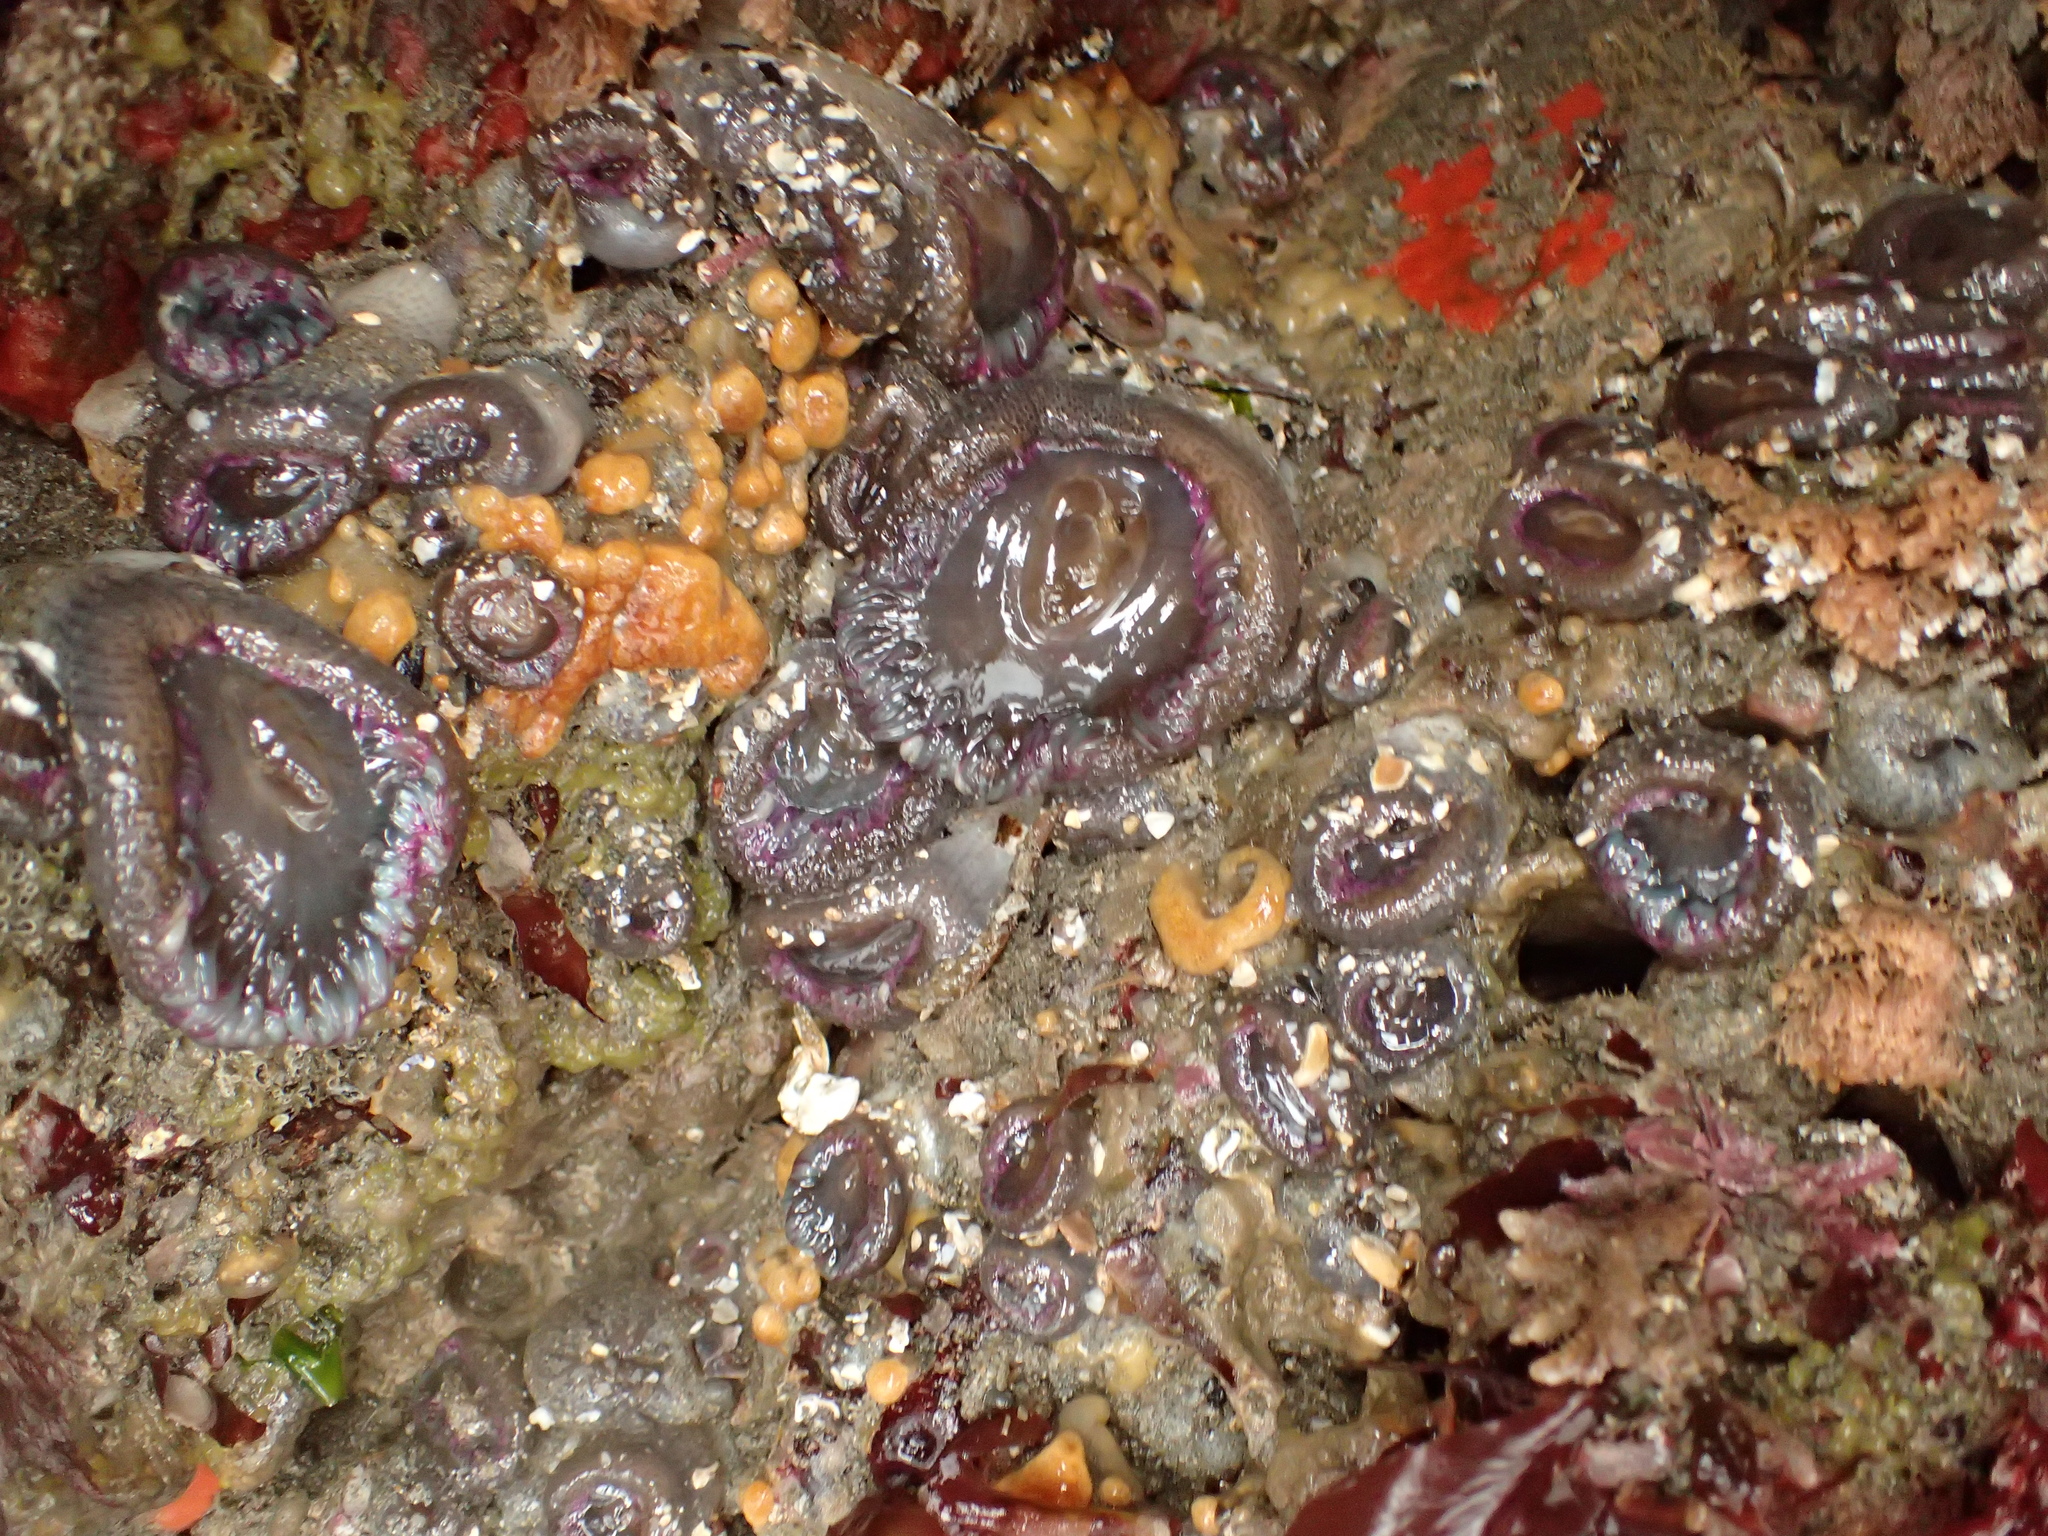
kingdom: Animalia
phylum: Cnidaria
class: Anthozoa
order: Actiniaria
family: Actiniidae
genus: Anthopleura
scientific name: Anthopleura elegantissima
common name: Clonal anemone
